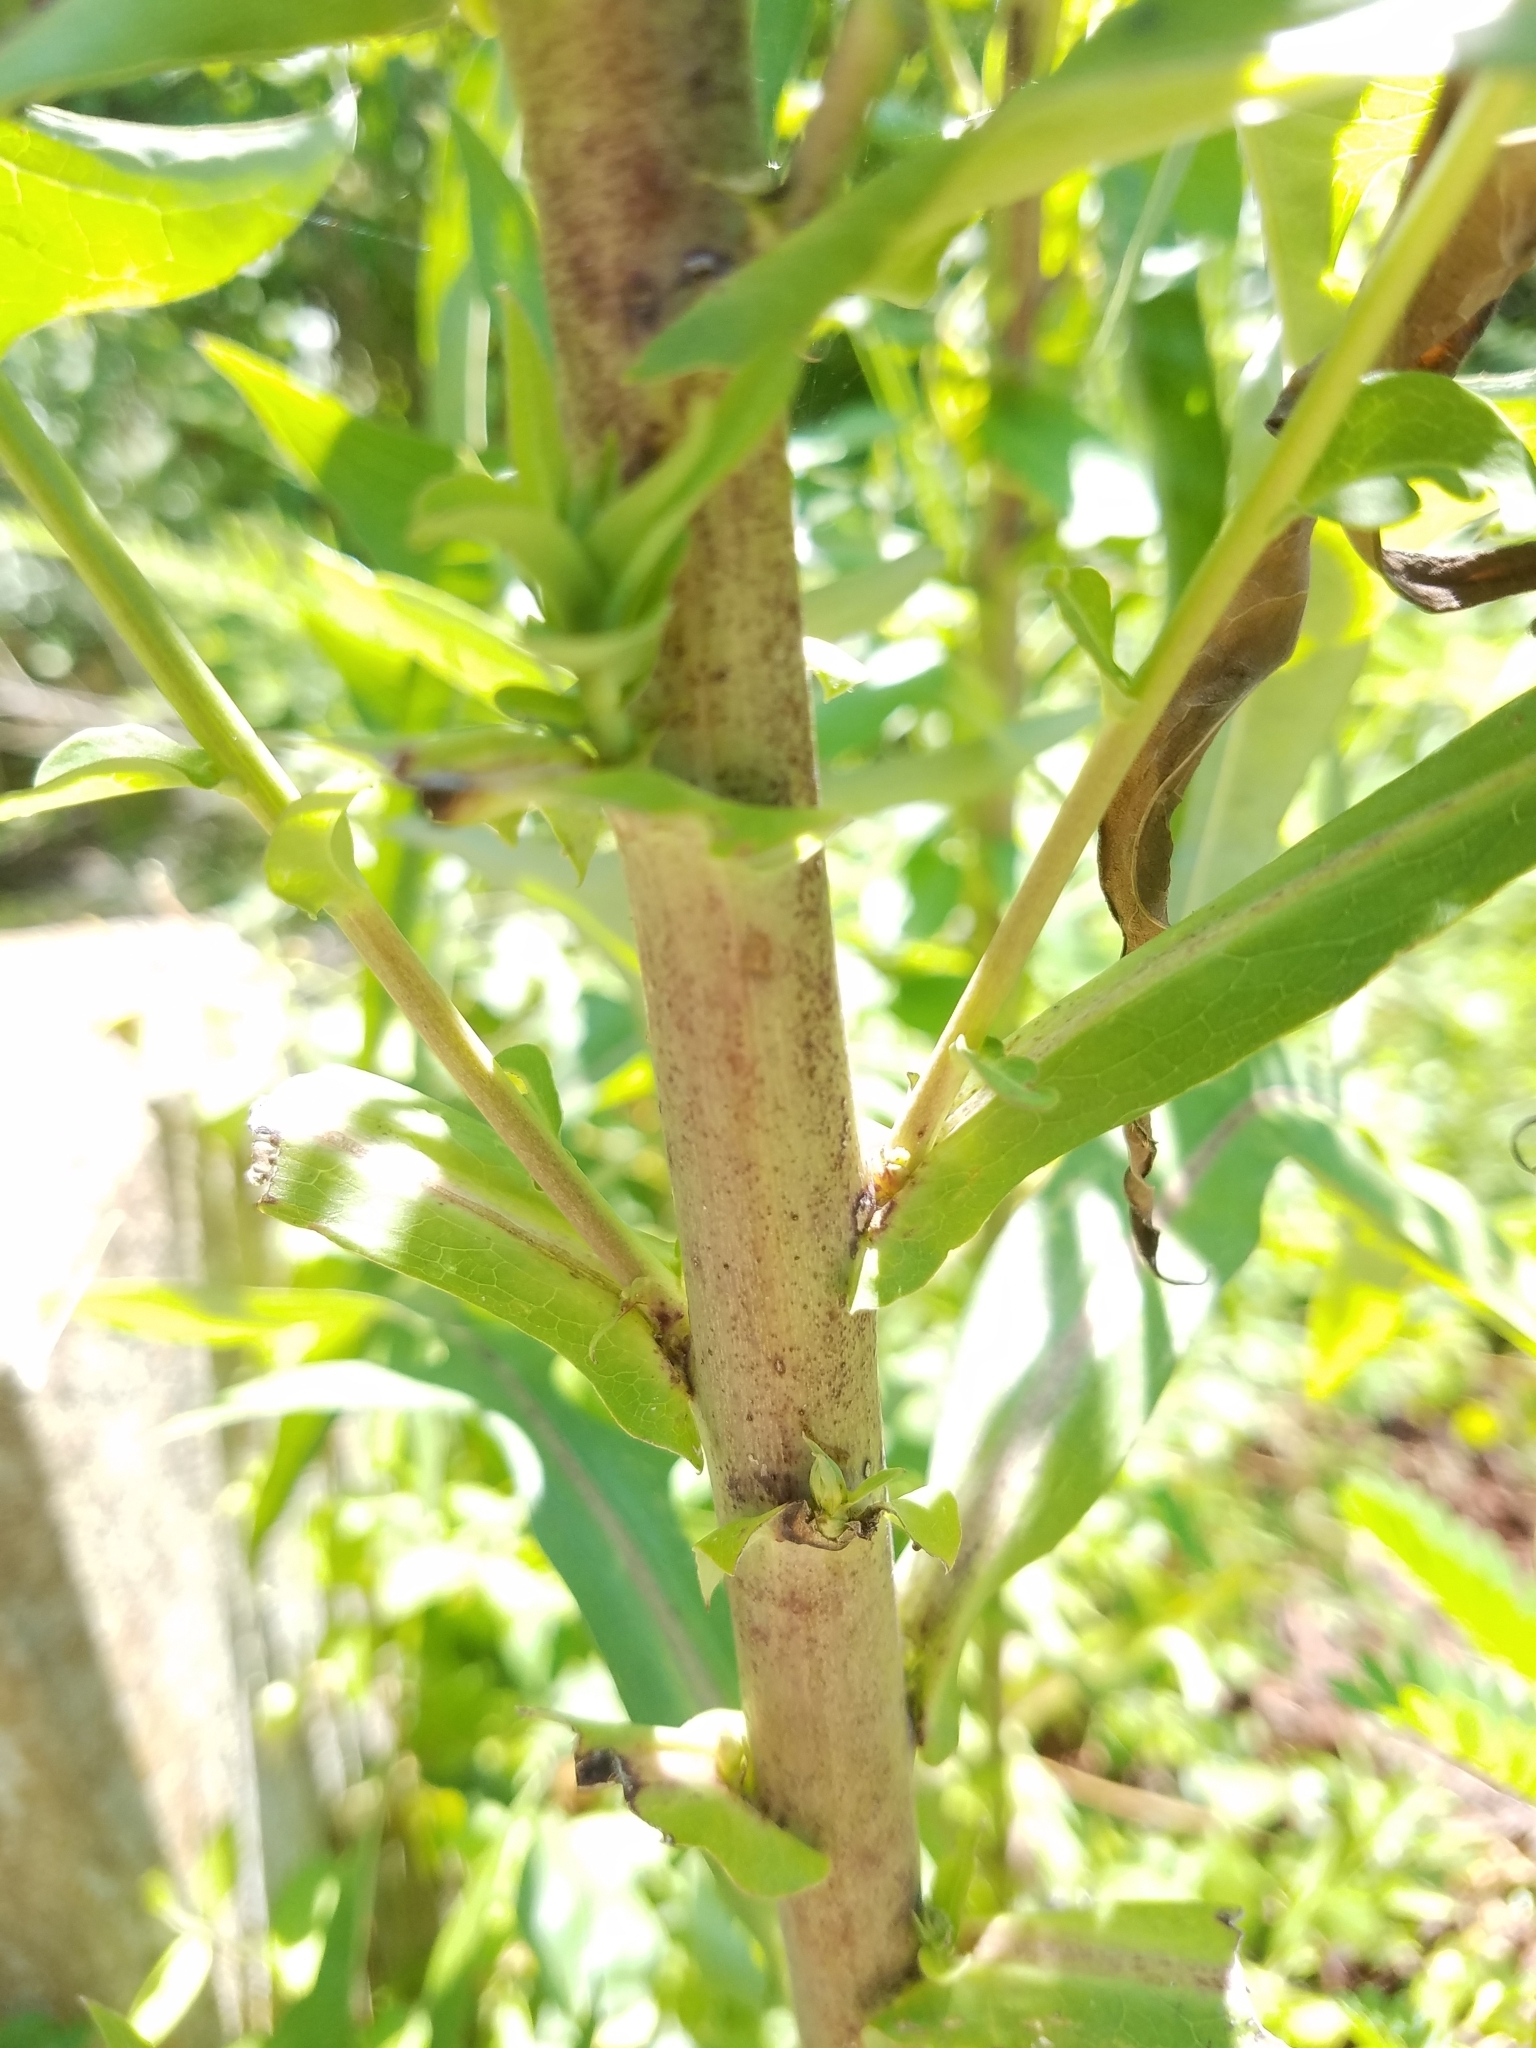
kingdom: Plantae
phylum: Tracheophyta
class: Magnoliopsida
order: Asterales
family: Asteraceae
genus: Lactuca
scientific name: Lactuca canadensis
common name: Canada lettuce
